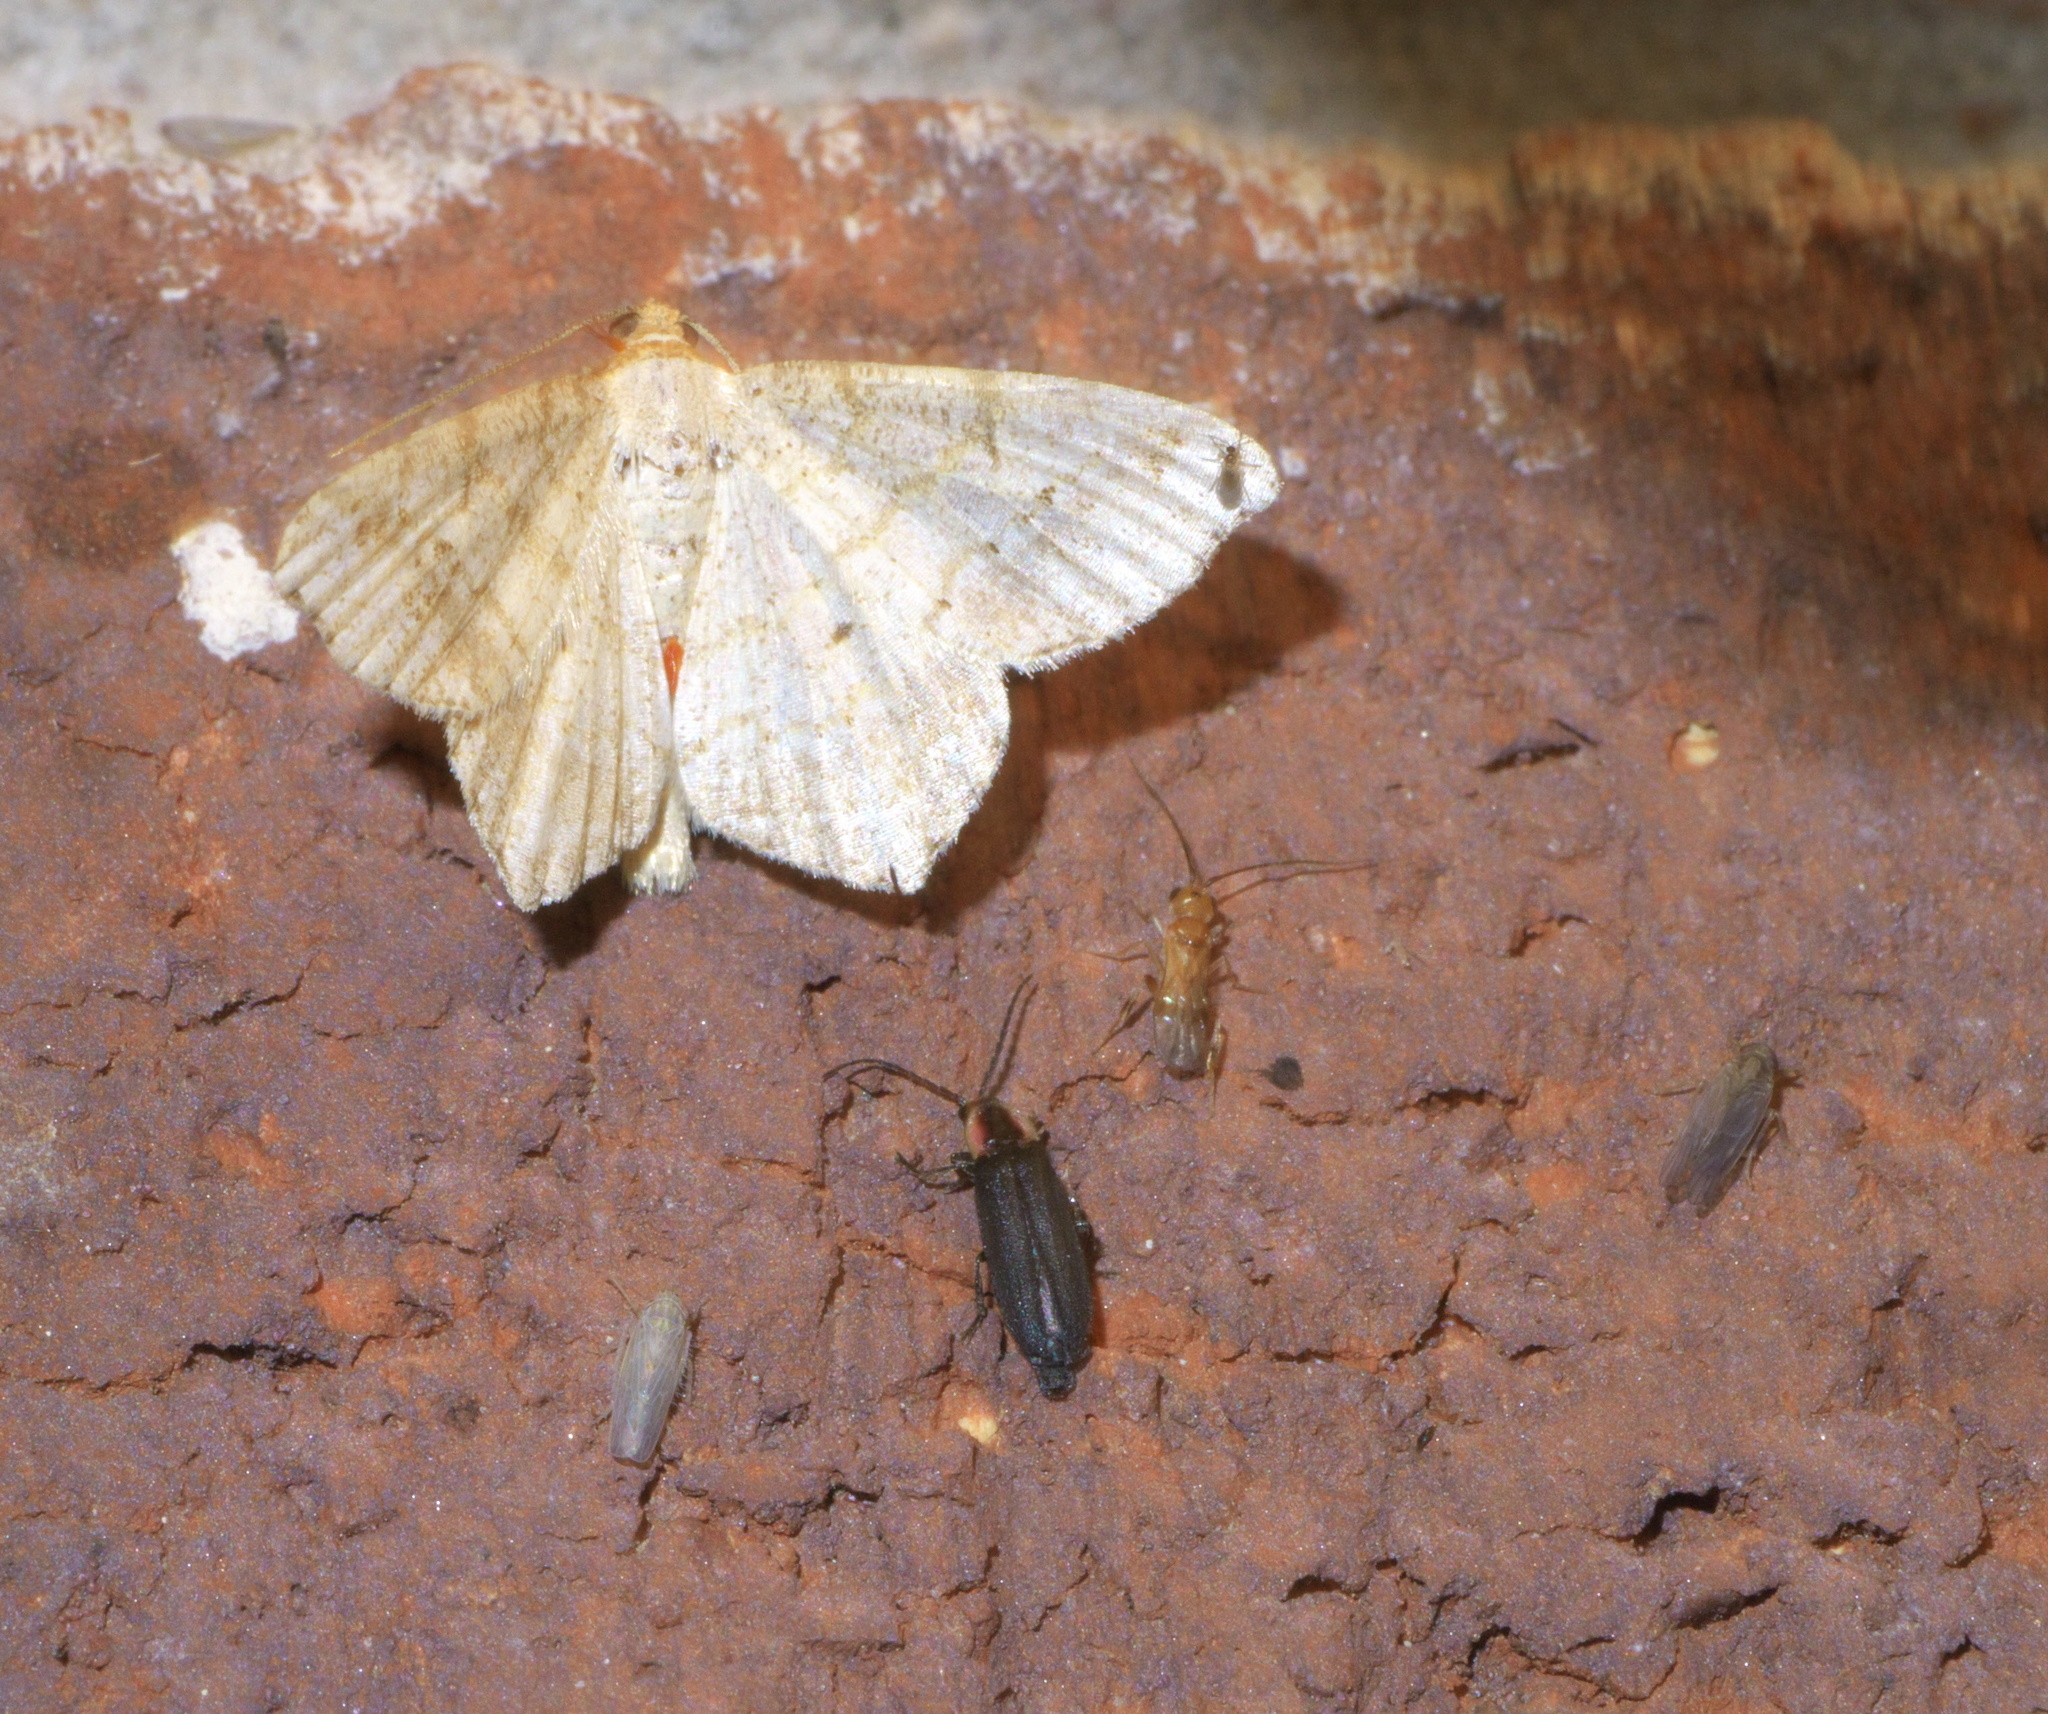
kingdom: Animalia
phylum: Arthropoda
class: Insecta
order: Lepidoptera
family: Geometridae
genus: Macaria
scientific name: Macaria abydata
